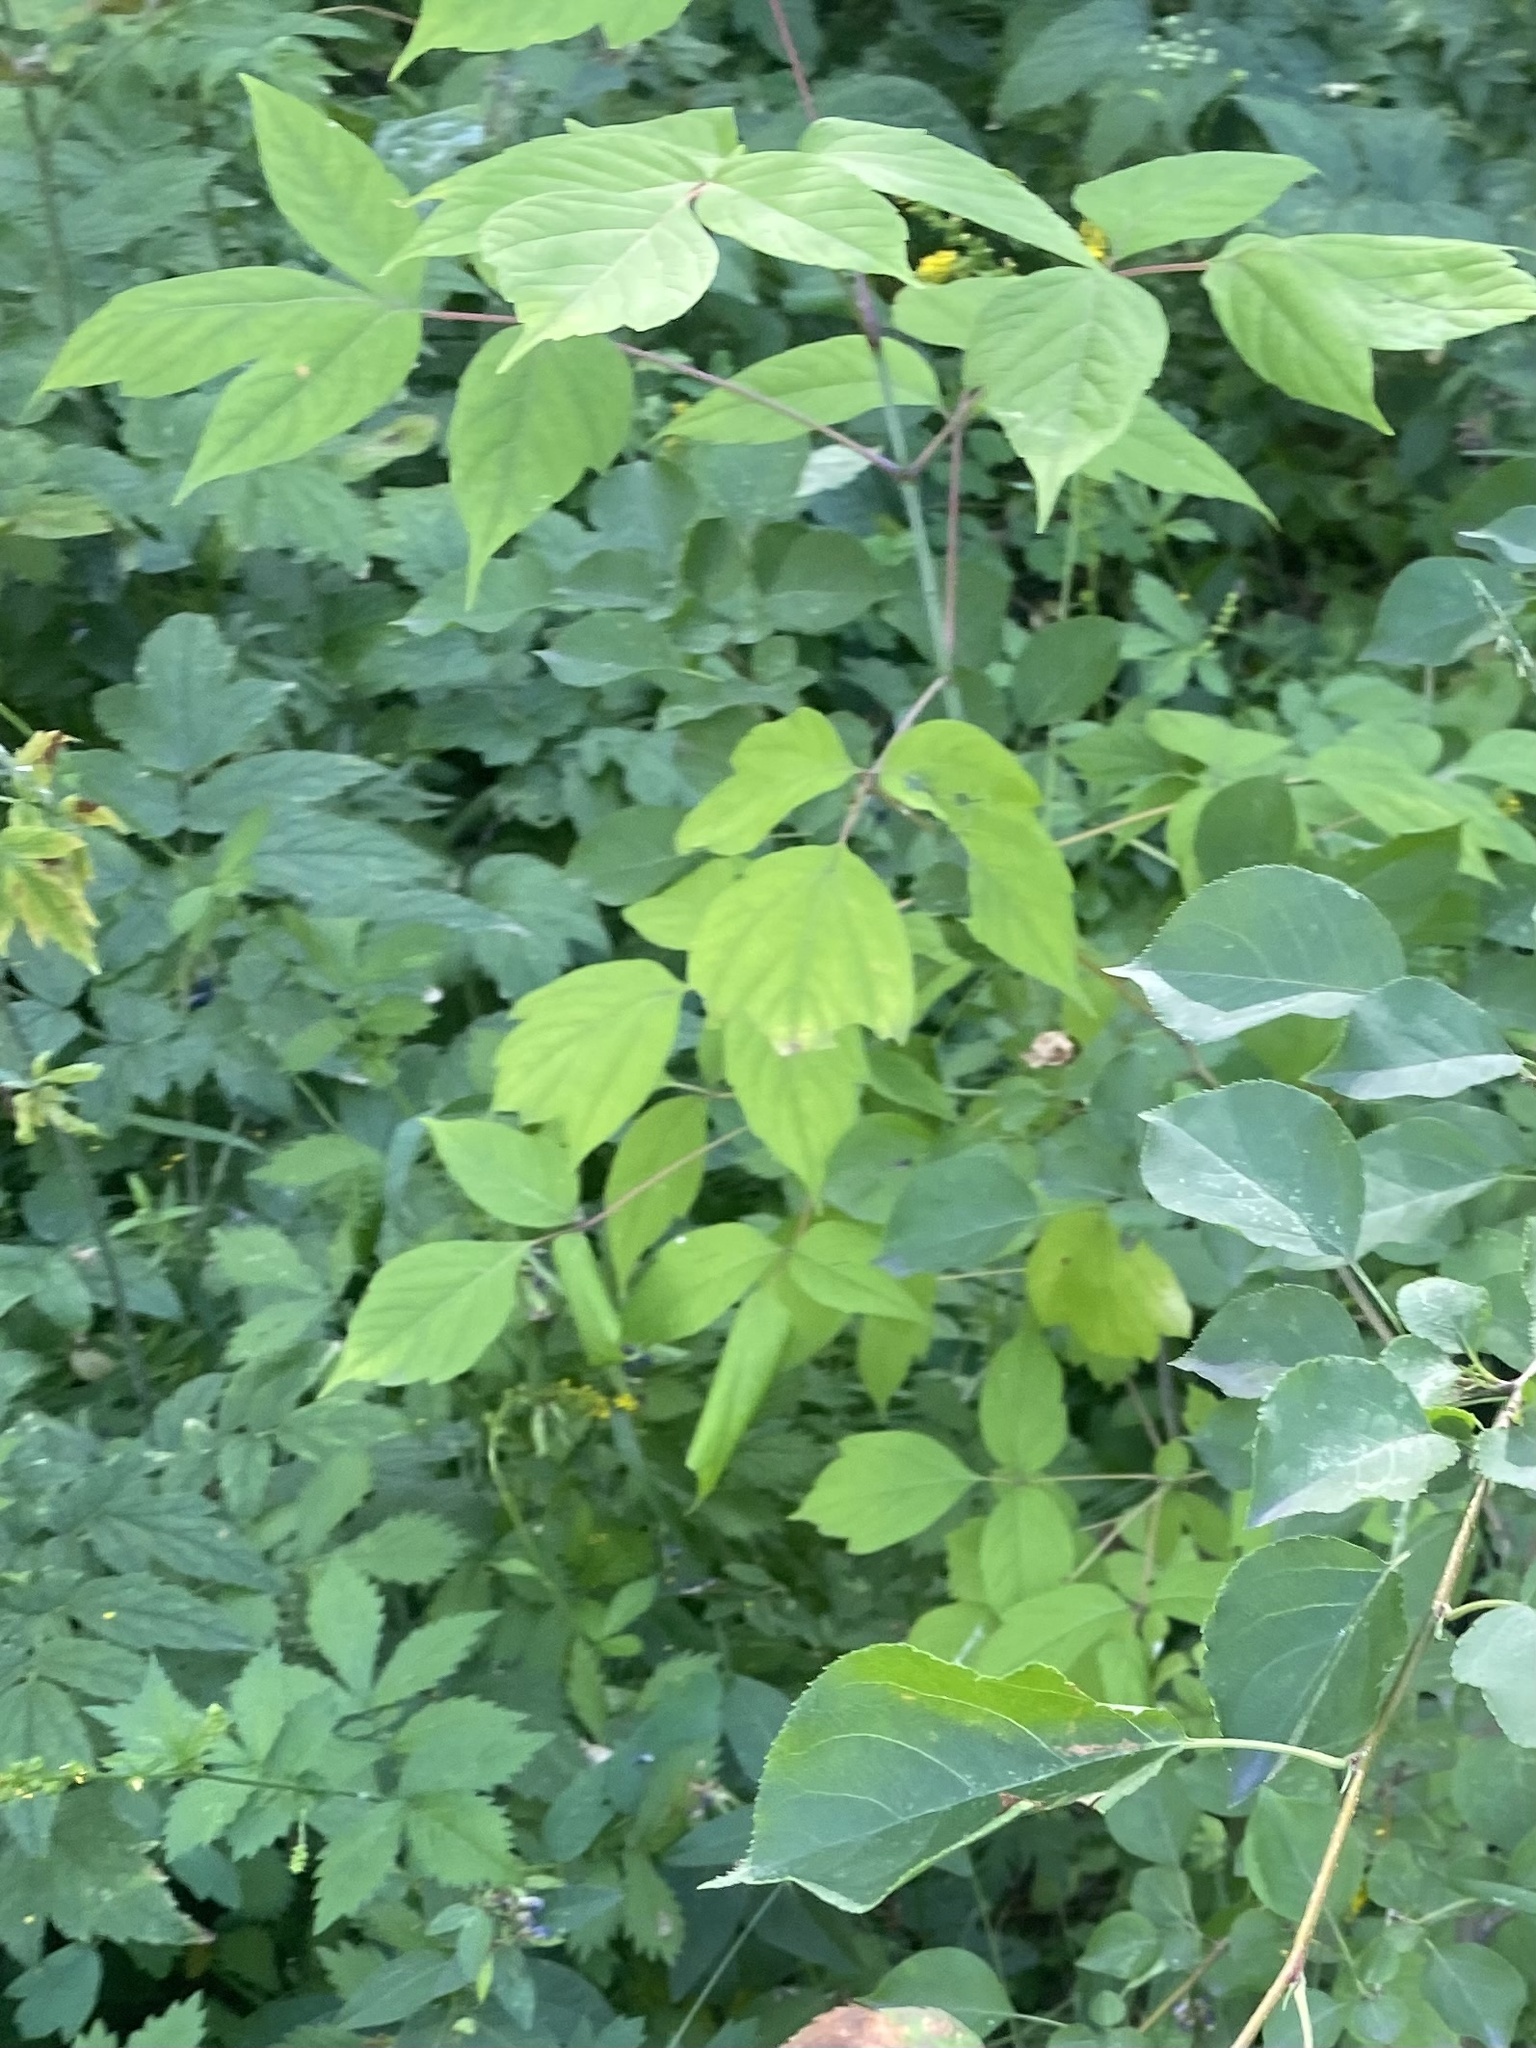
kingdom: Plantae
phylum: Tracheophyta
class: Magnoliopsida
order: Sapindales
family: Sapindaceae
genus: Acer
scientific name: Acer negundo
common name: Ashleaf maple
